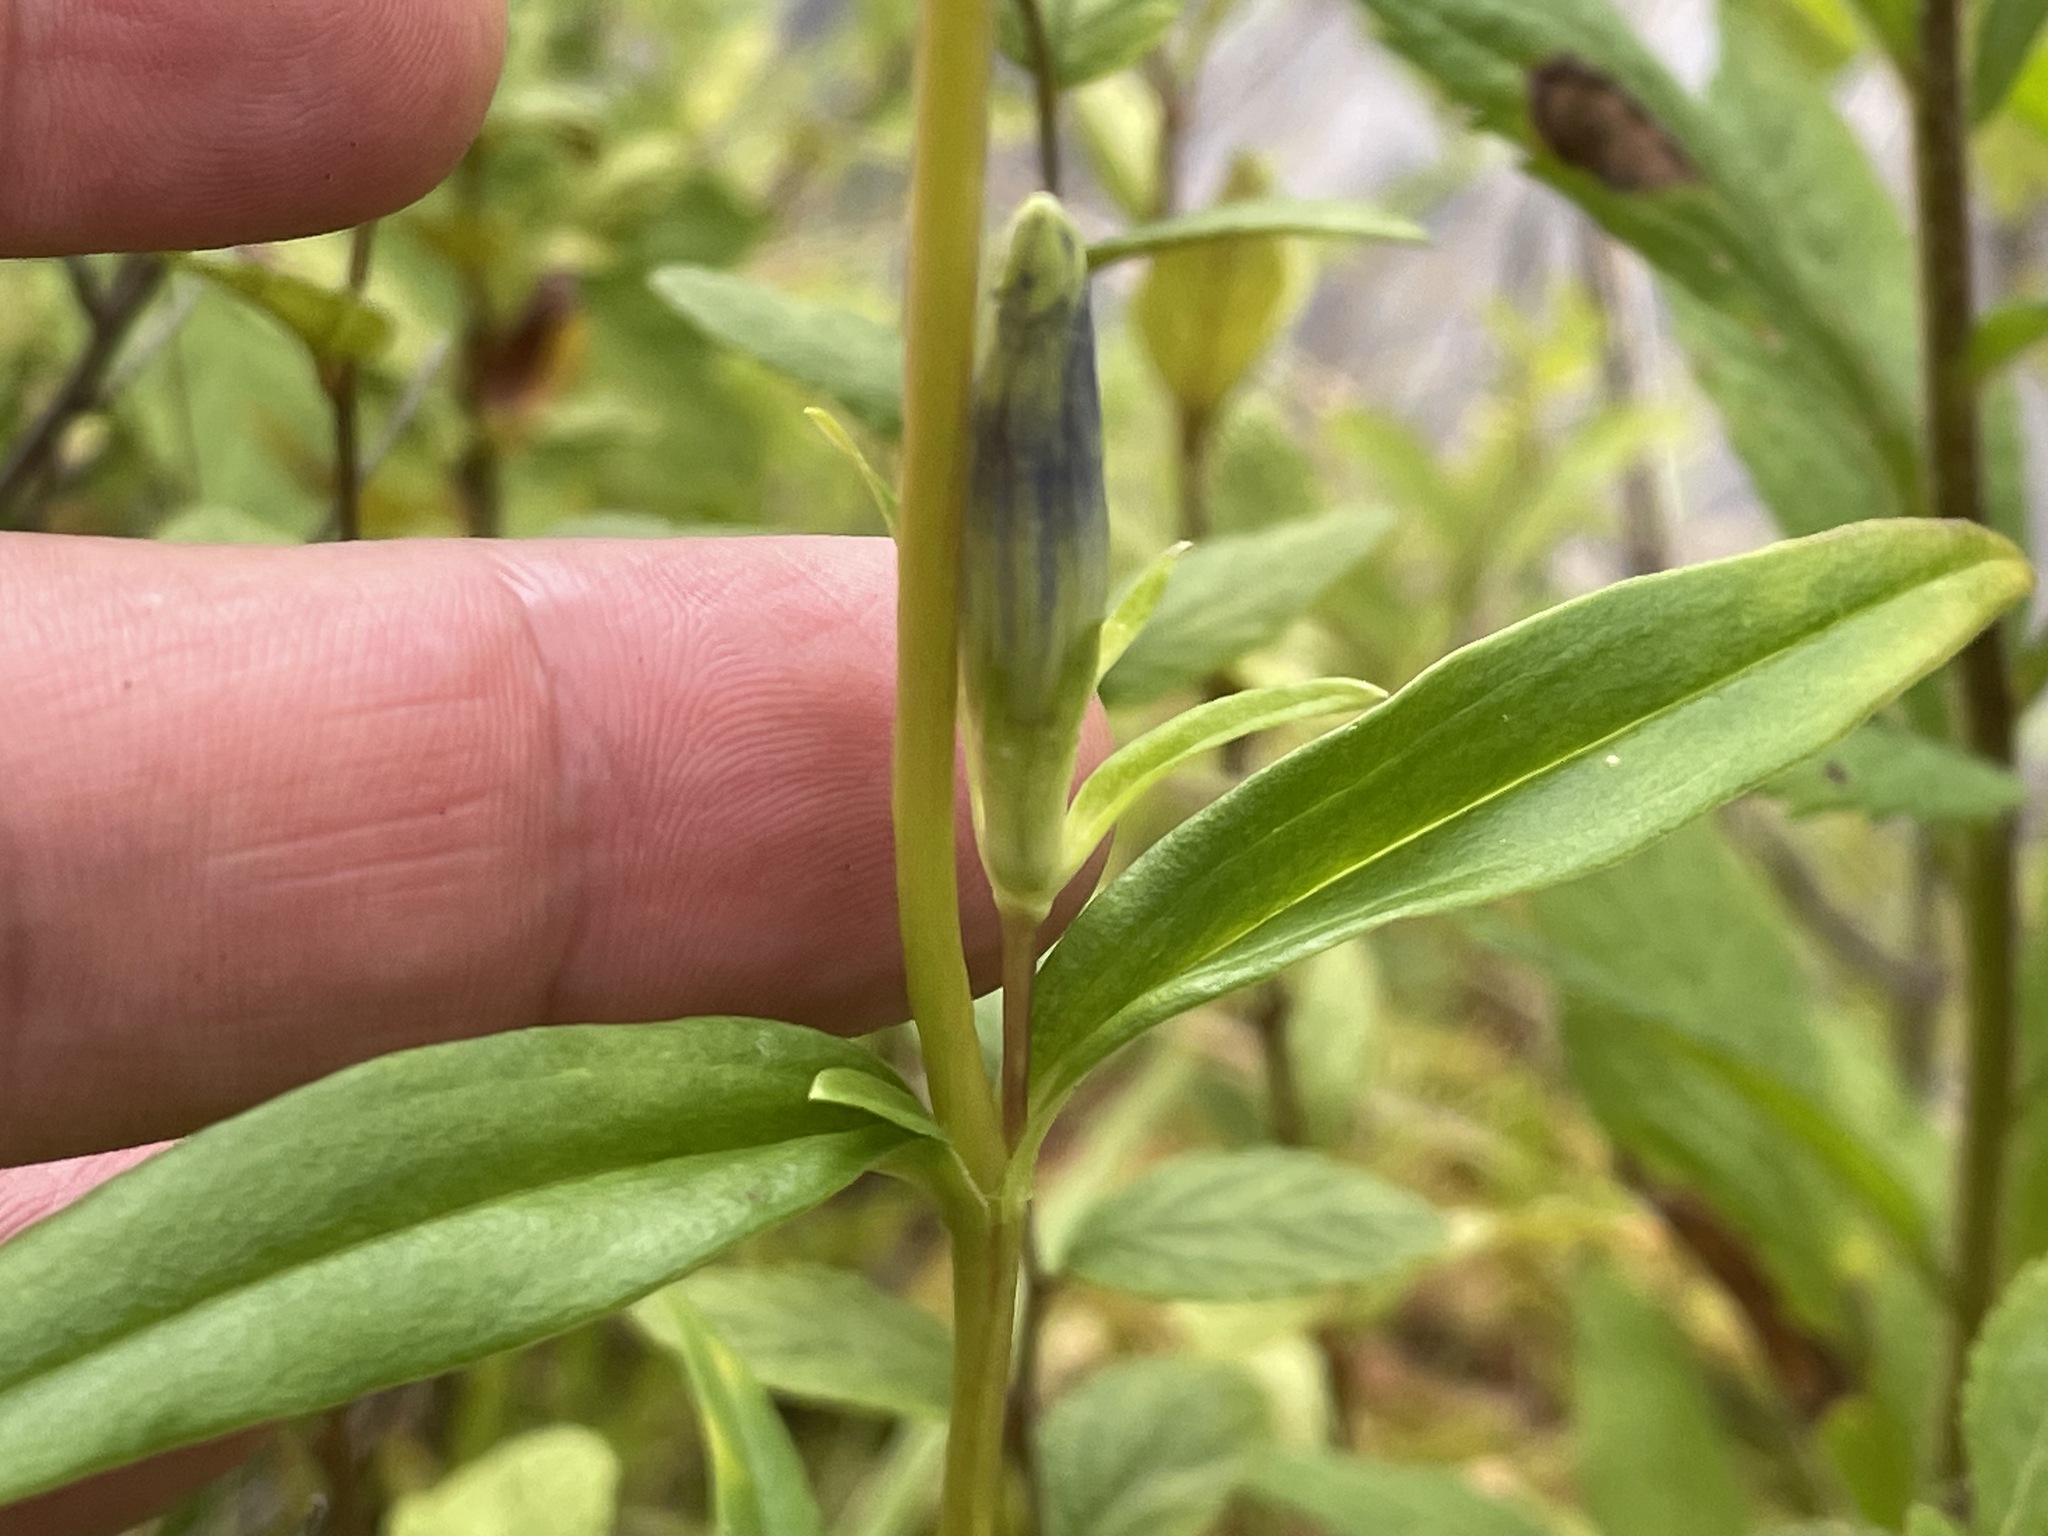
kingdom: Plantae
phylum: Tracheophyta
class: Magnoliopsida
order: Gentianales
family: Gentianaceae
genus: Gentiana
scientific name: Gentiana linearis
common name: Bastard gentian
